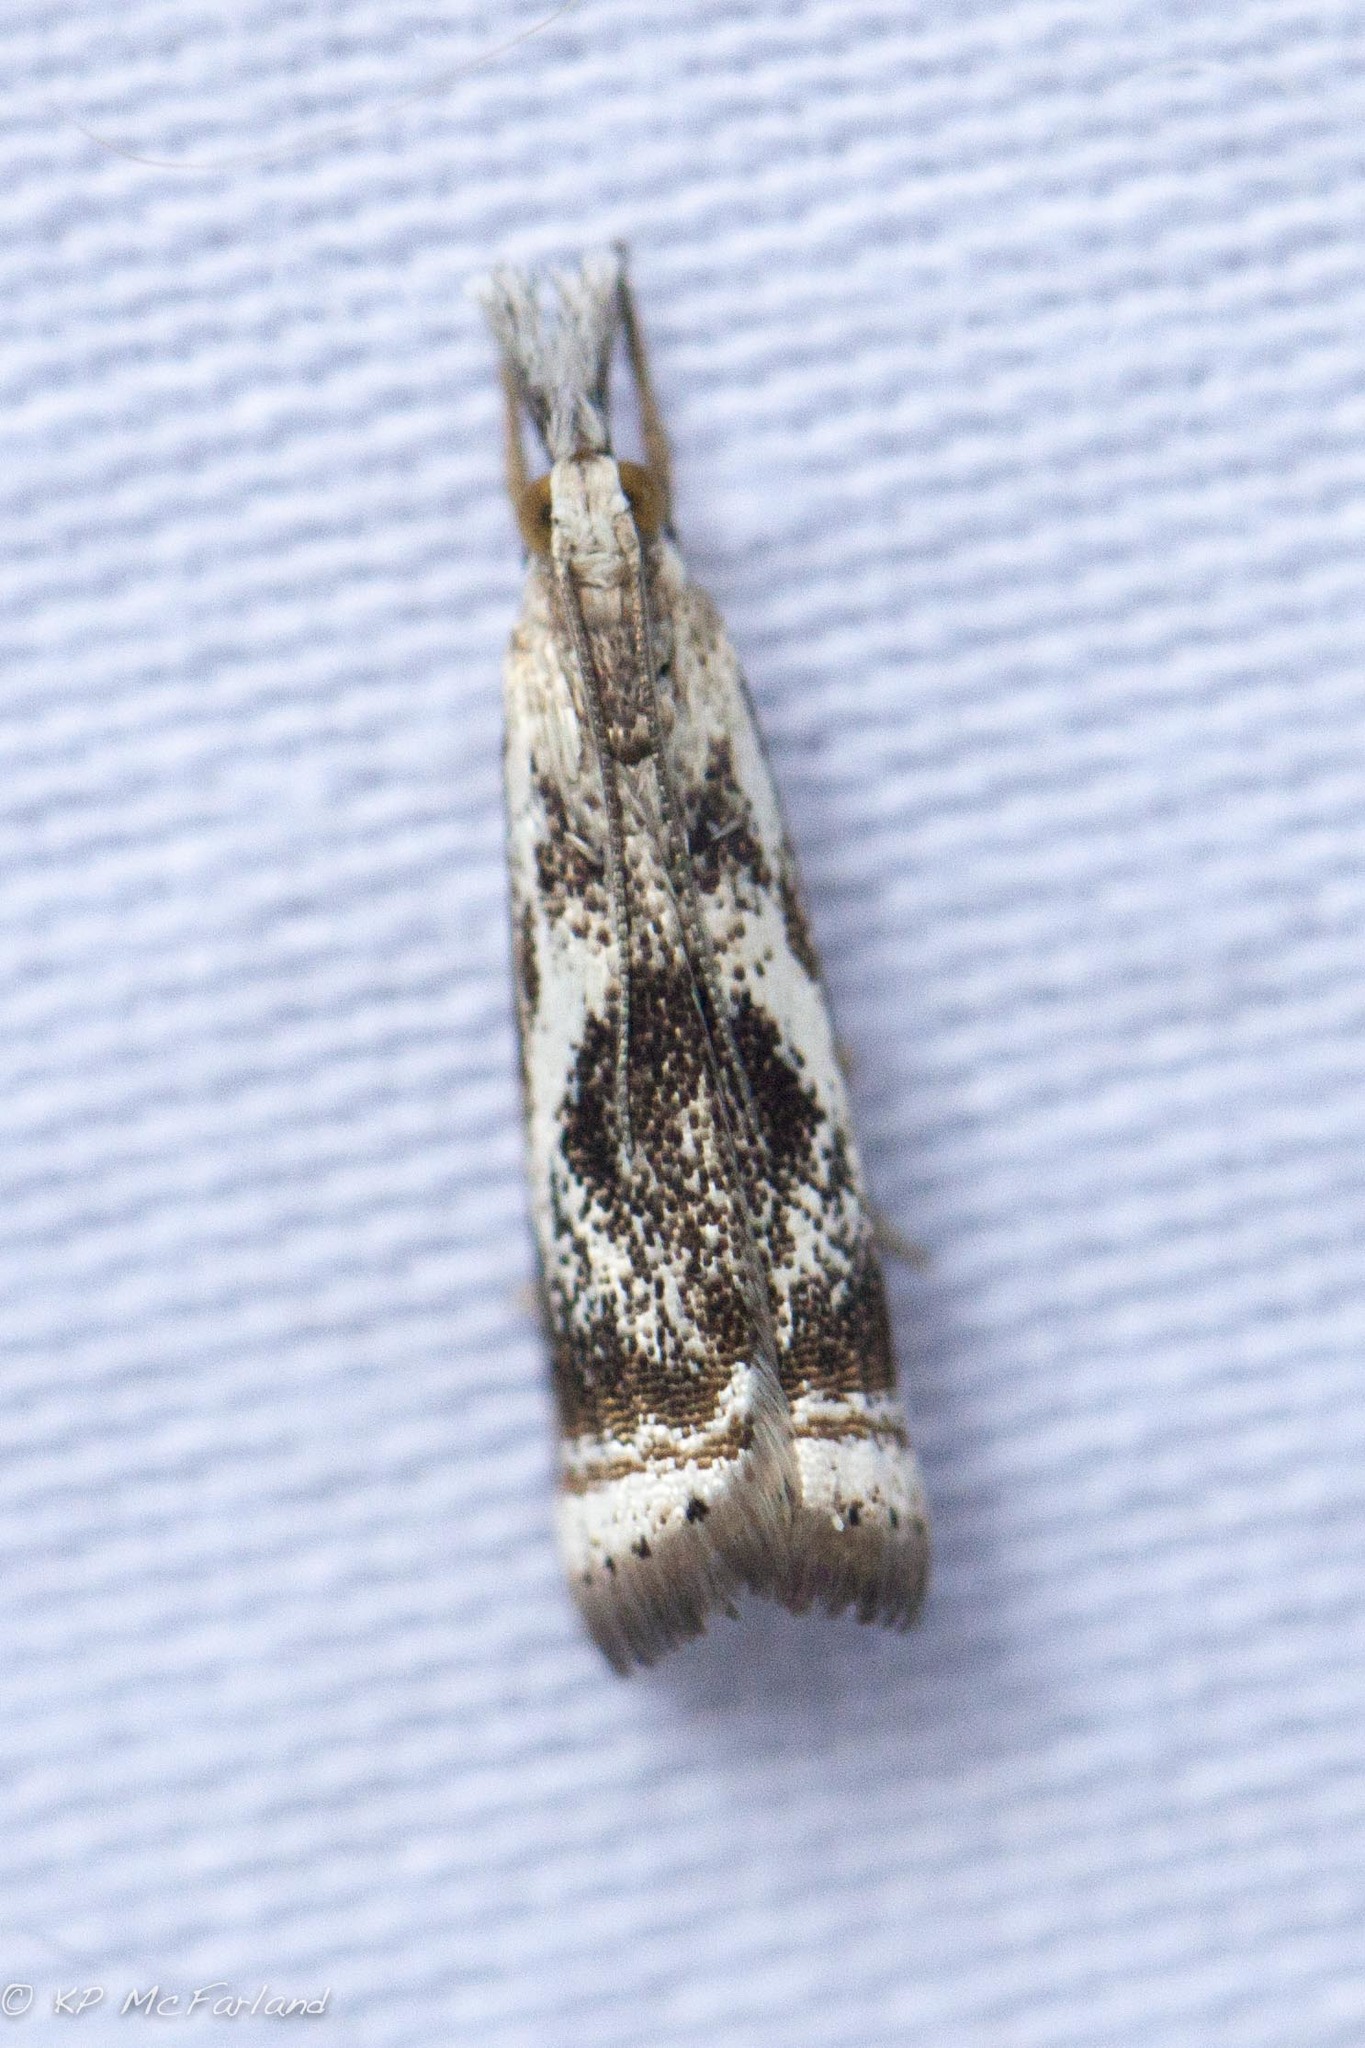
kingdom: Animalia
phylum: Arthropoda
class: Insecta
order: Lepidoptera
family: Crambidae
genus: Microcrambus
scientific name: Microcrambus elegans
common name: Elegant grass-veneer
